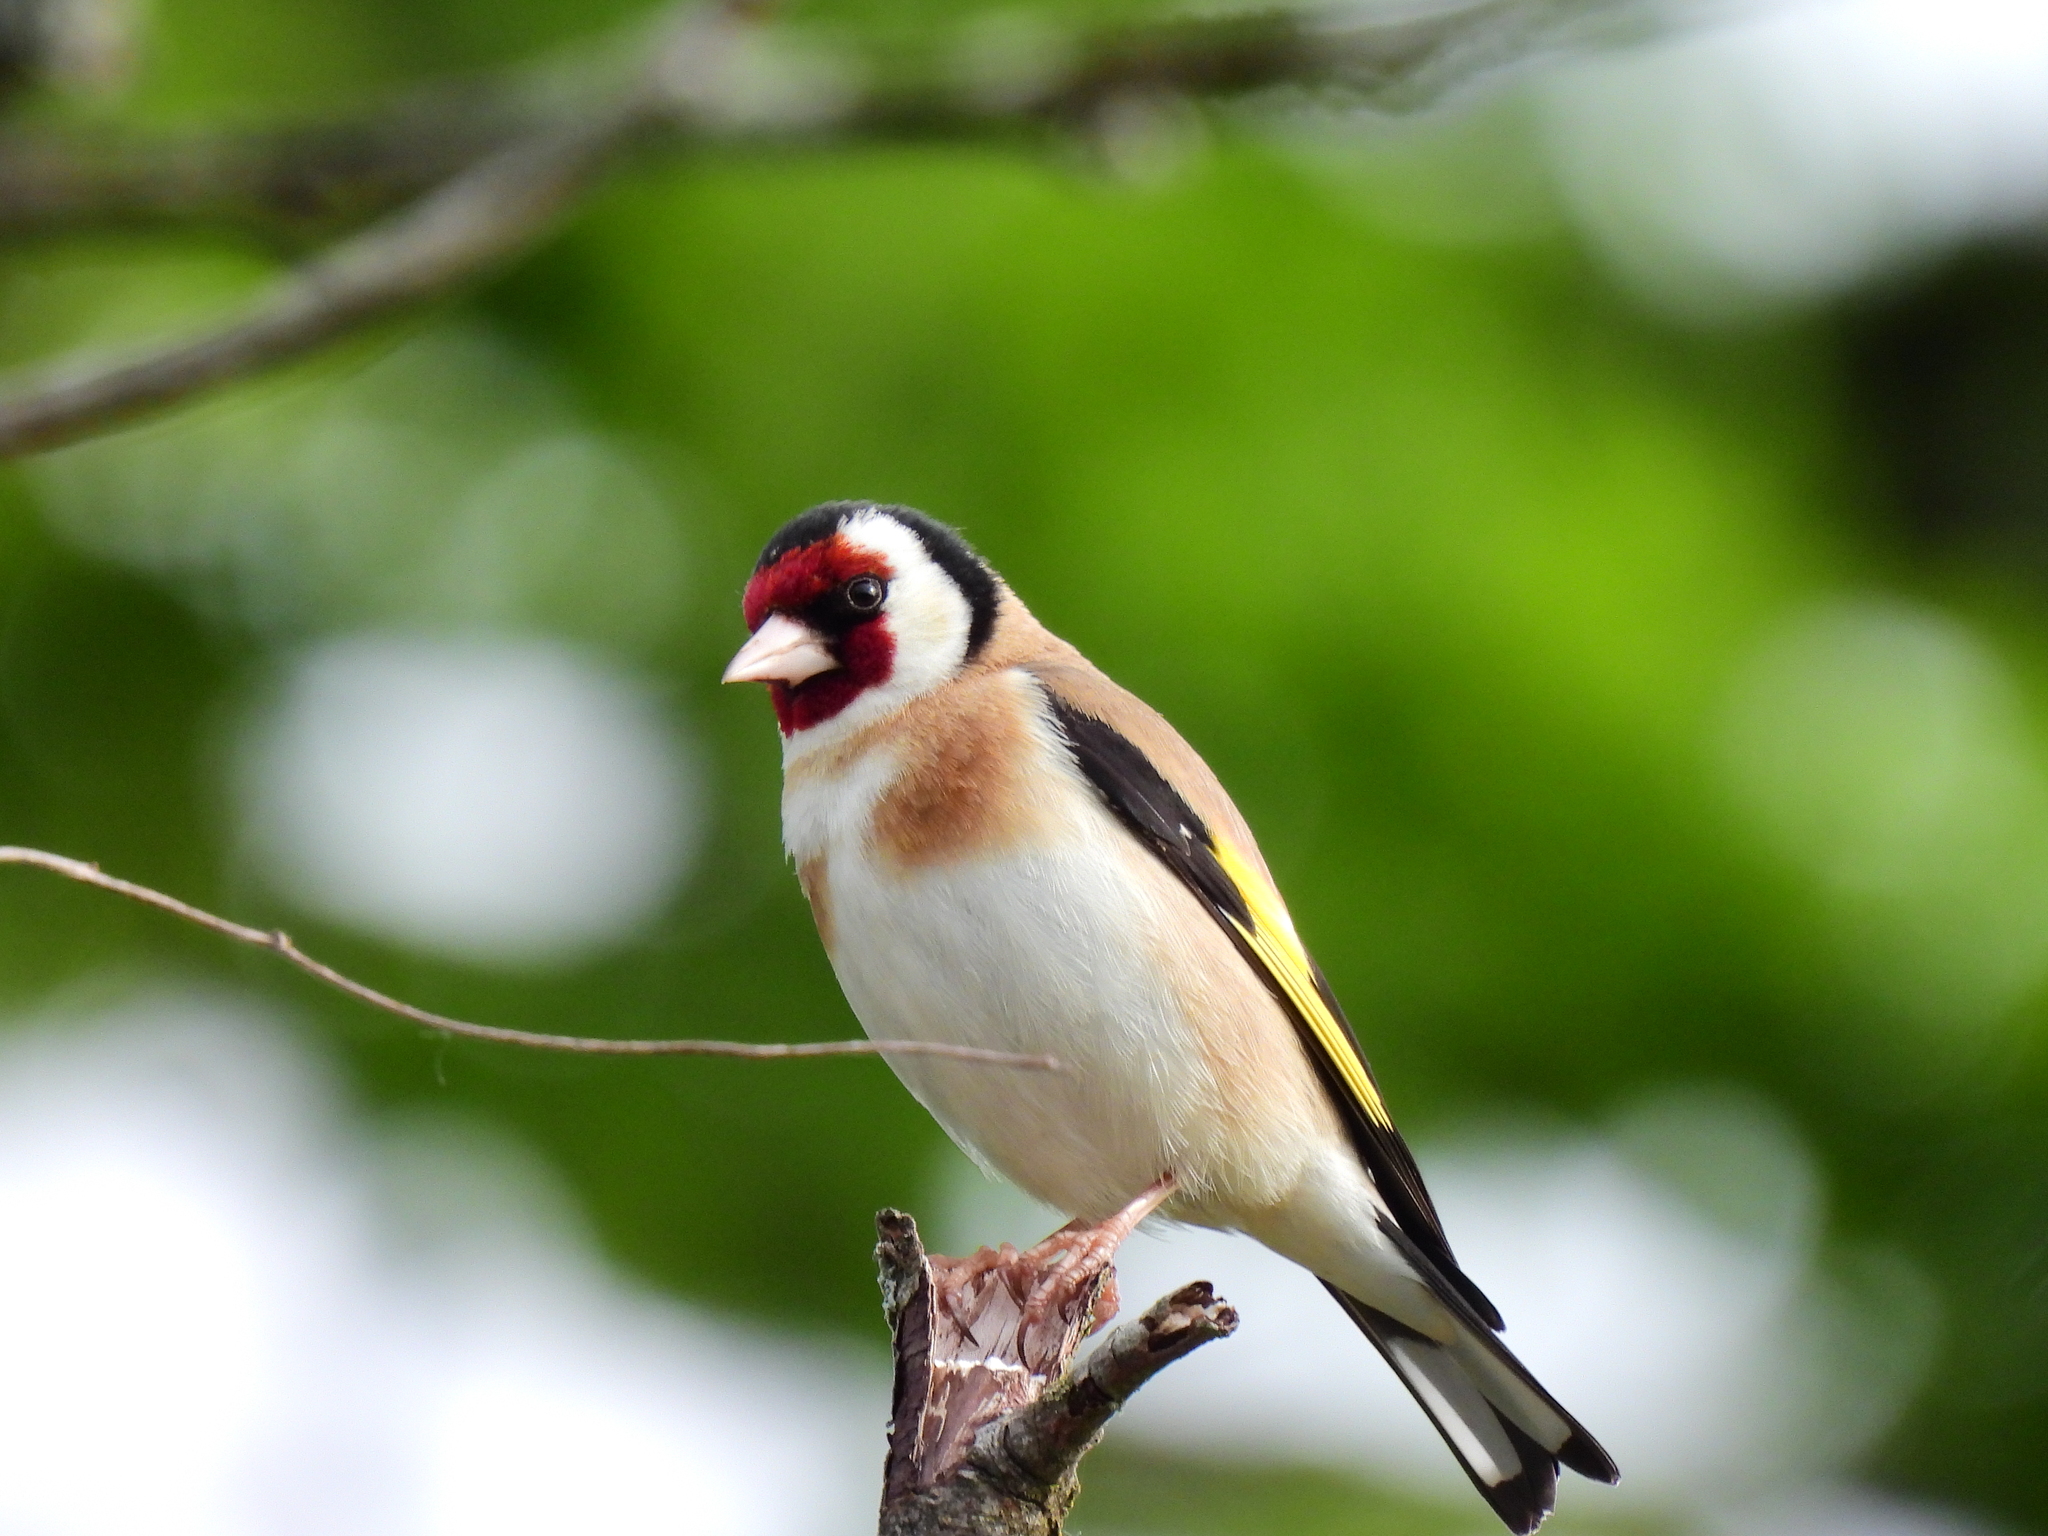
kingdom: Animalia
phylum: Chordata
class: Aves
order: Passeriformes
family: Fringillidae
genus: Carduelis
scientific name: Carduelis carduelis
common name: European goldfinch
